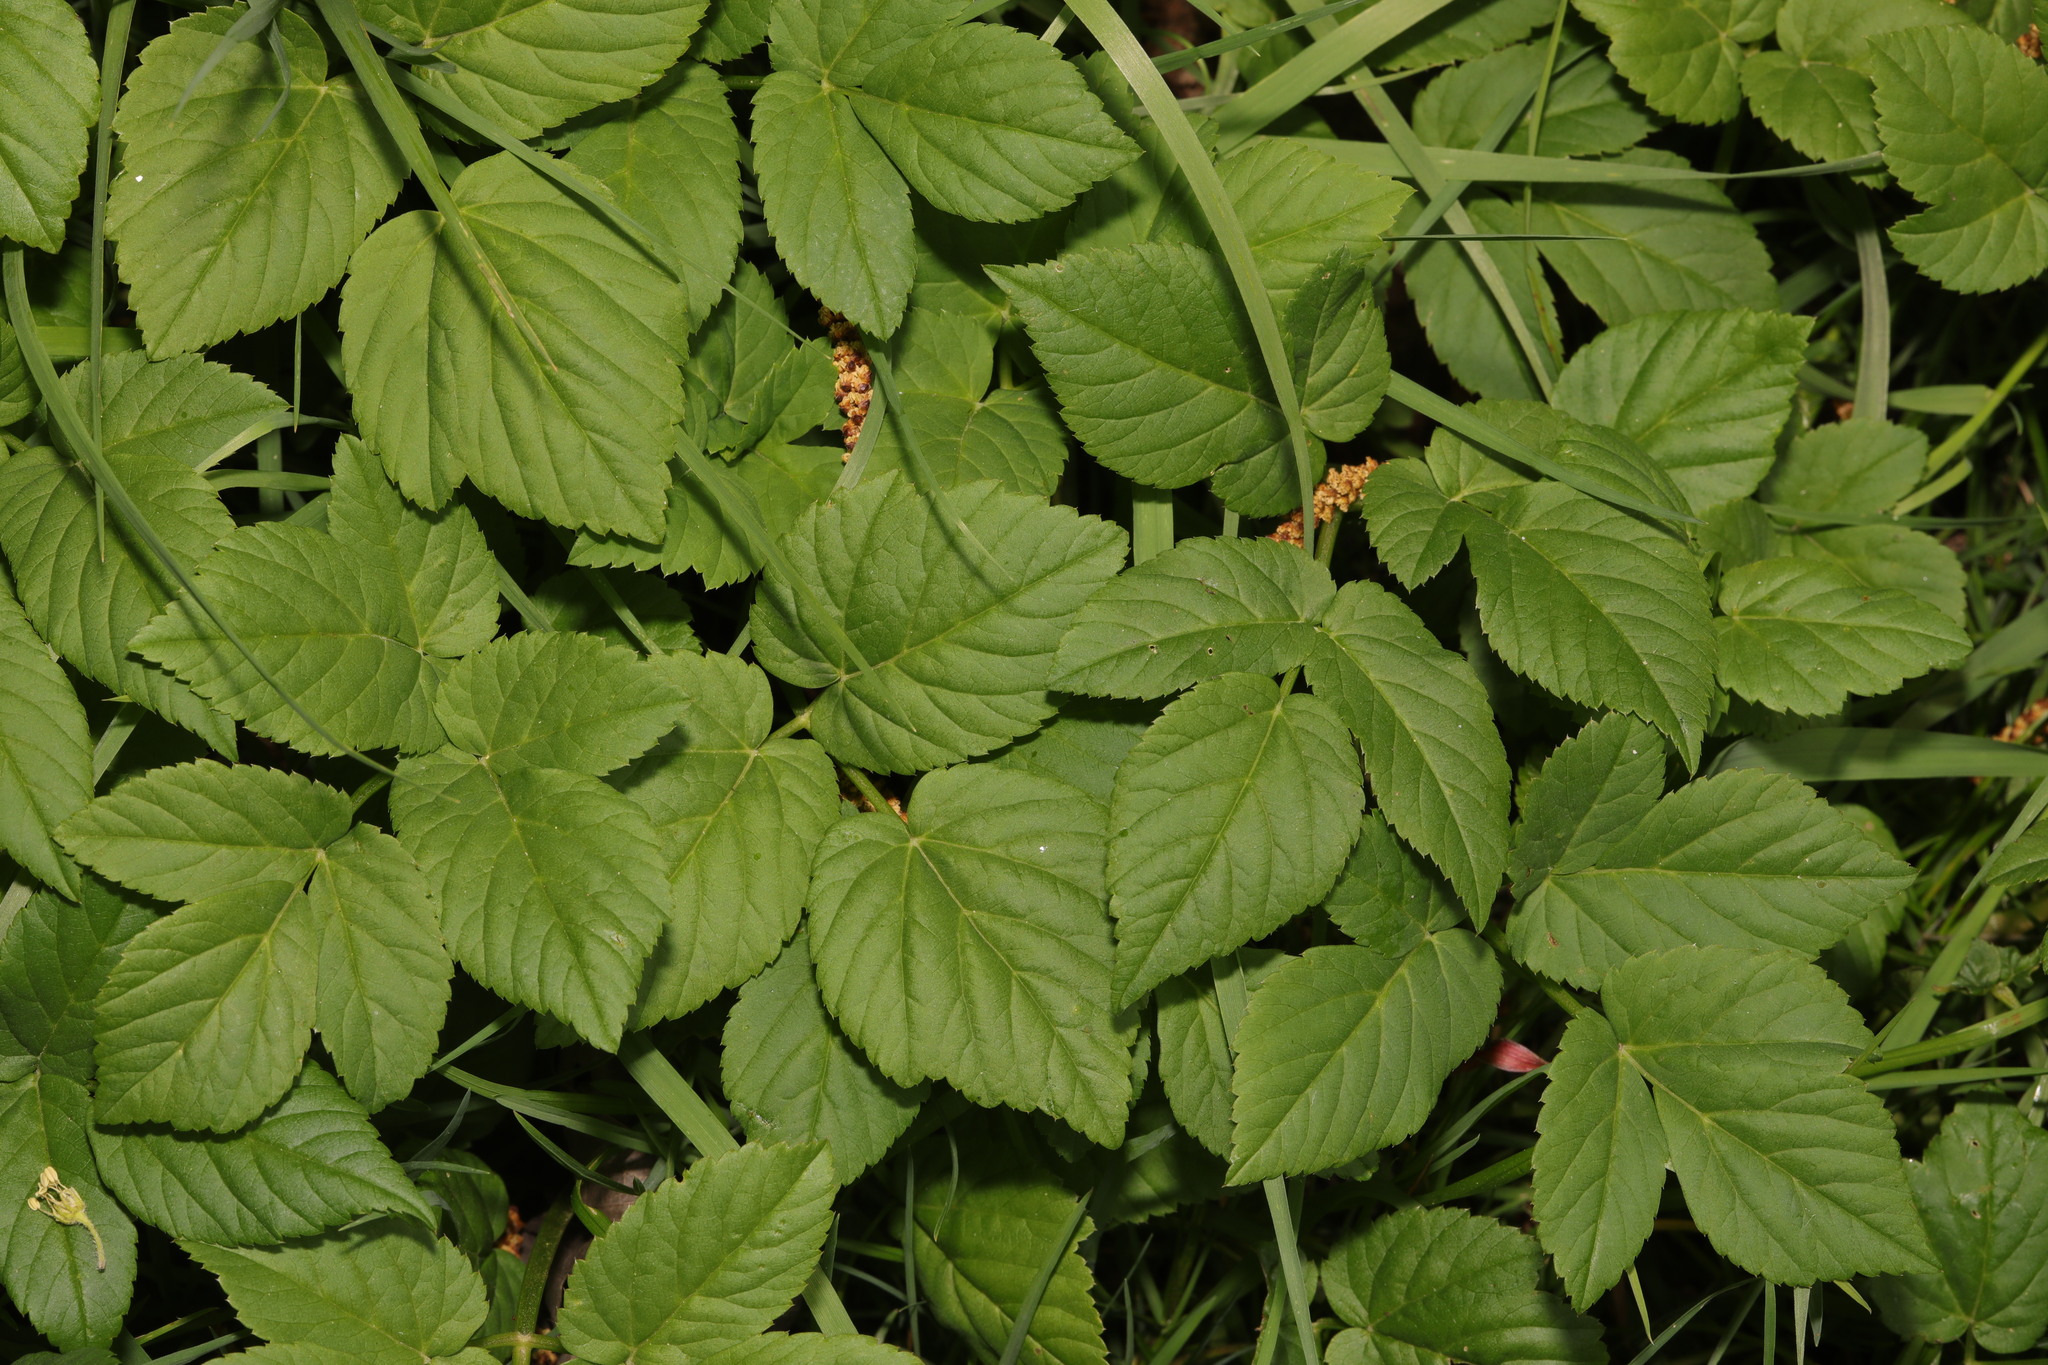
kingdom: Plantae
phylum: Tracheophyta
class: Magnoliopsida
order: Apiales
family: Apiaceae
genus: Aegopodium
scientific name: Aegopodium podagraria
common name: Ground-elder
